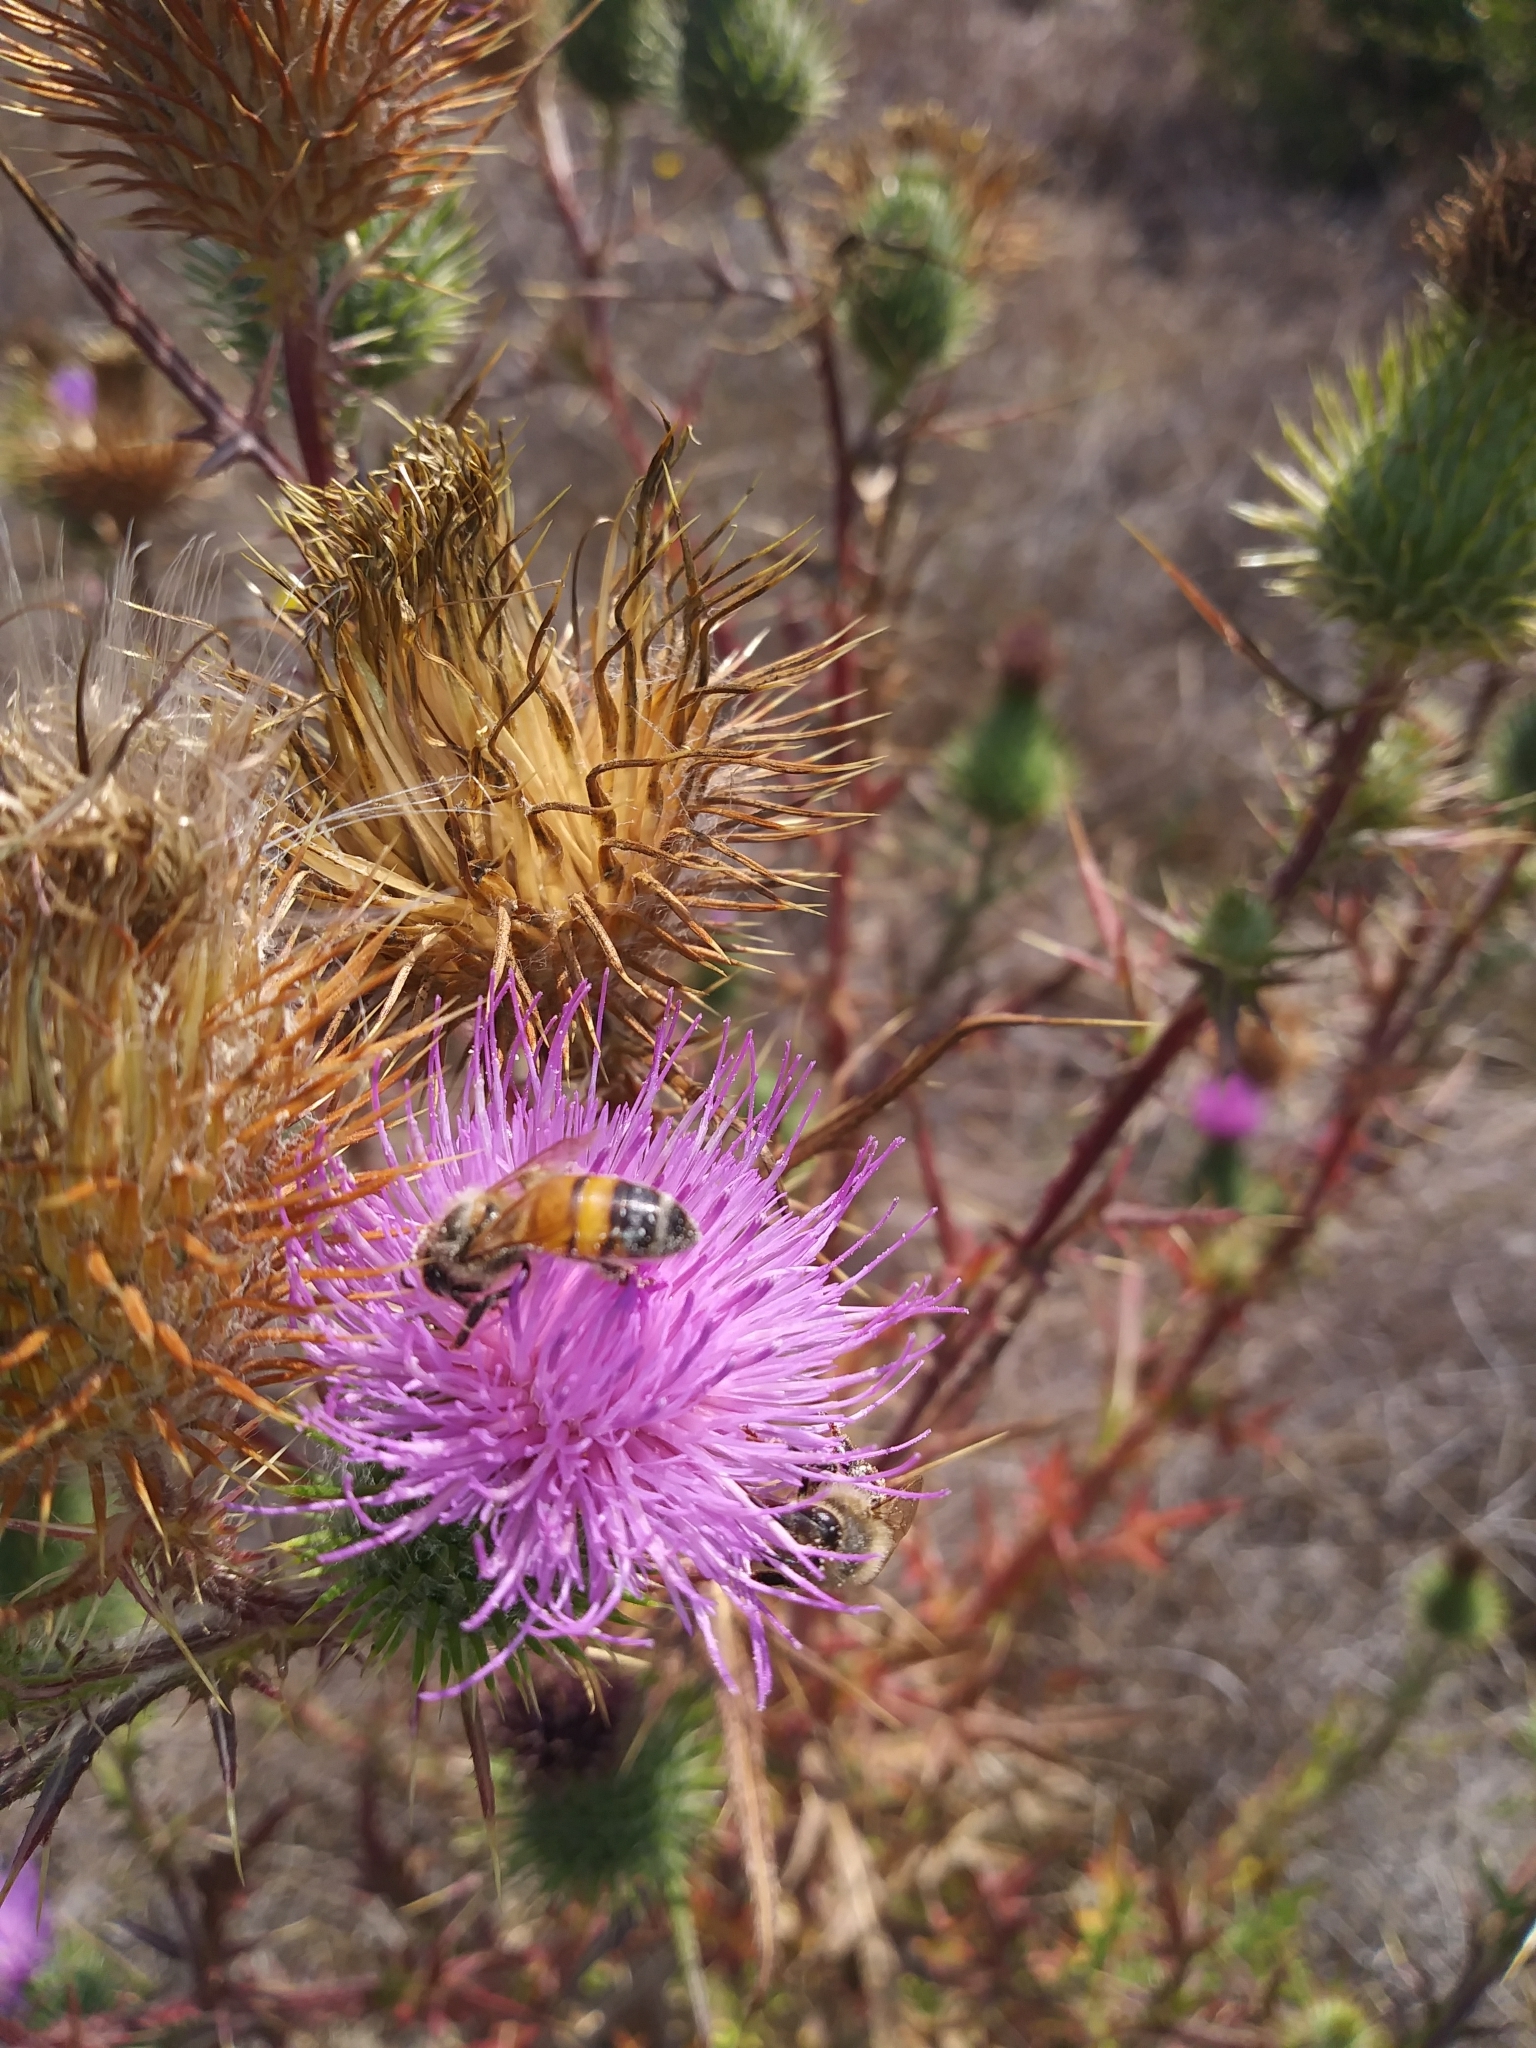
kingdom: Animalia
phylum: Arthropoda
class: Insecta
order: Hymenoptera
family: Apidae
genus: Apis
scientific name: Apis mellifera
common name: Honey bee
